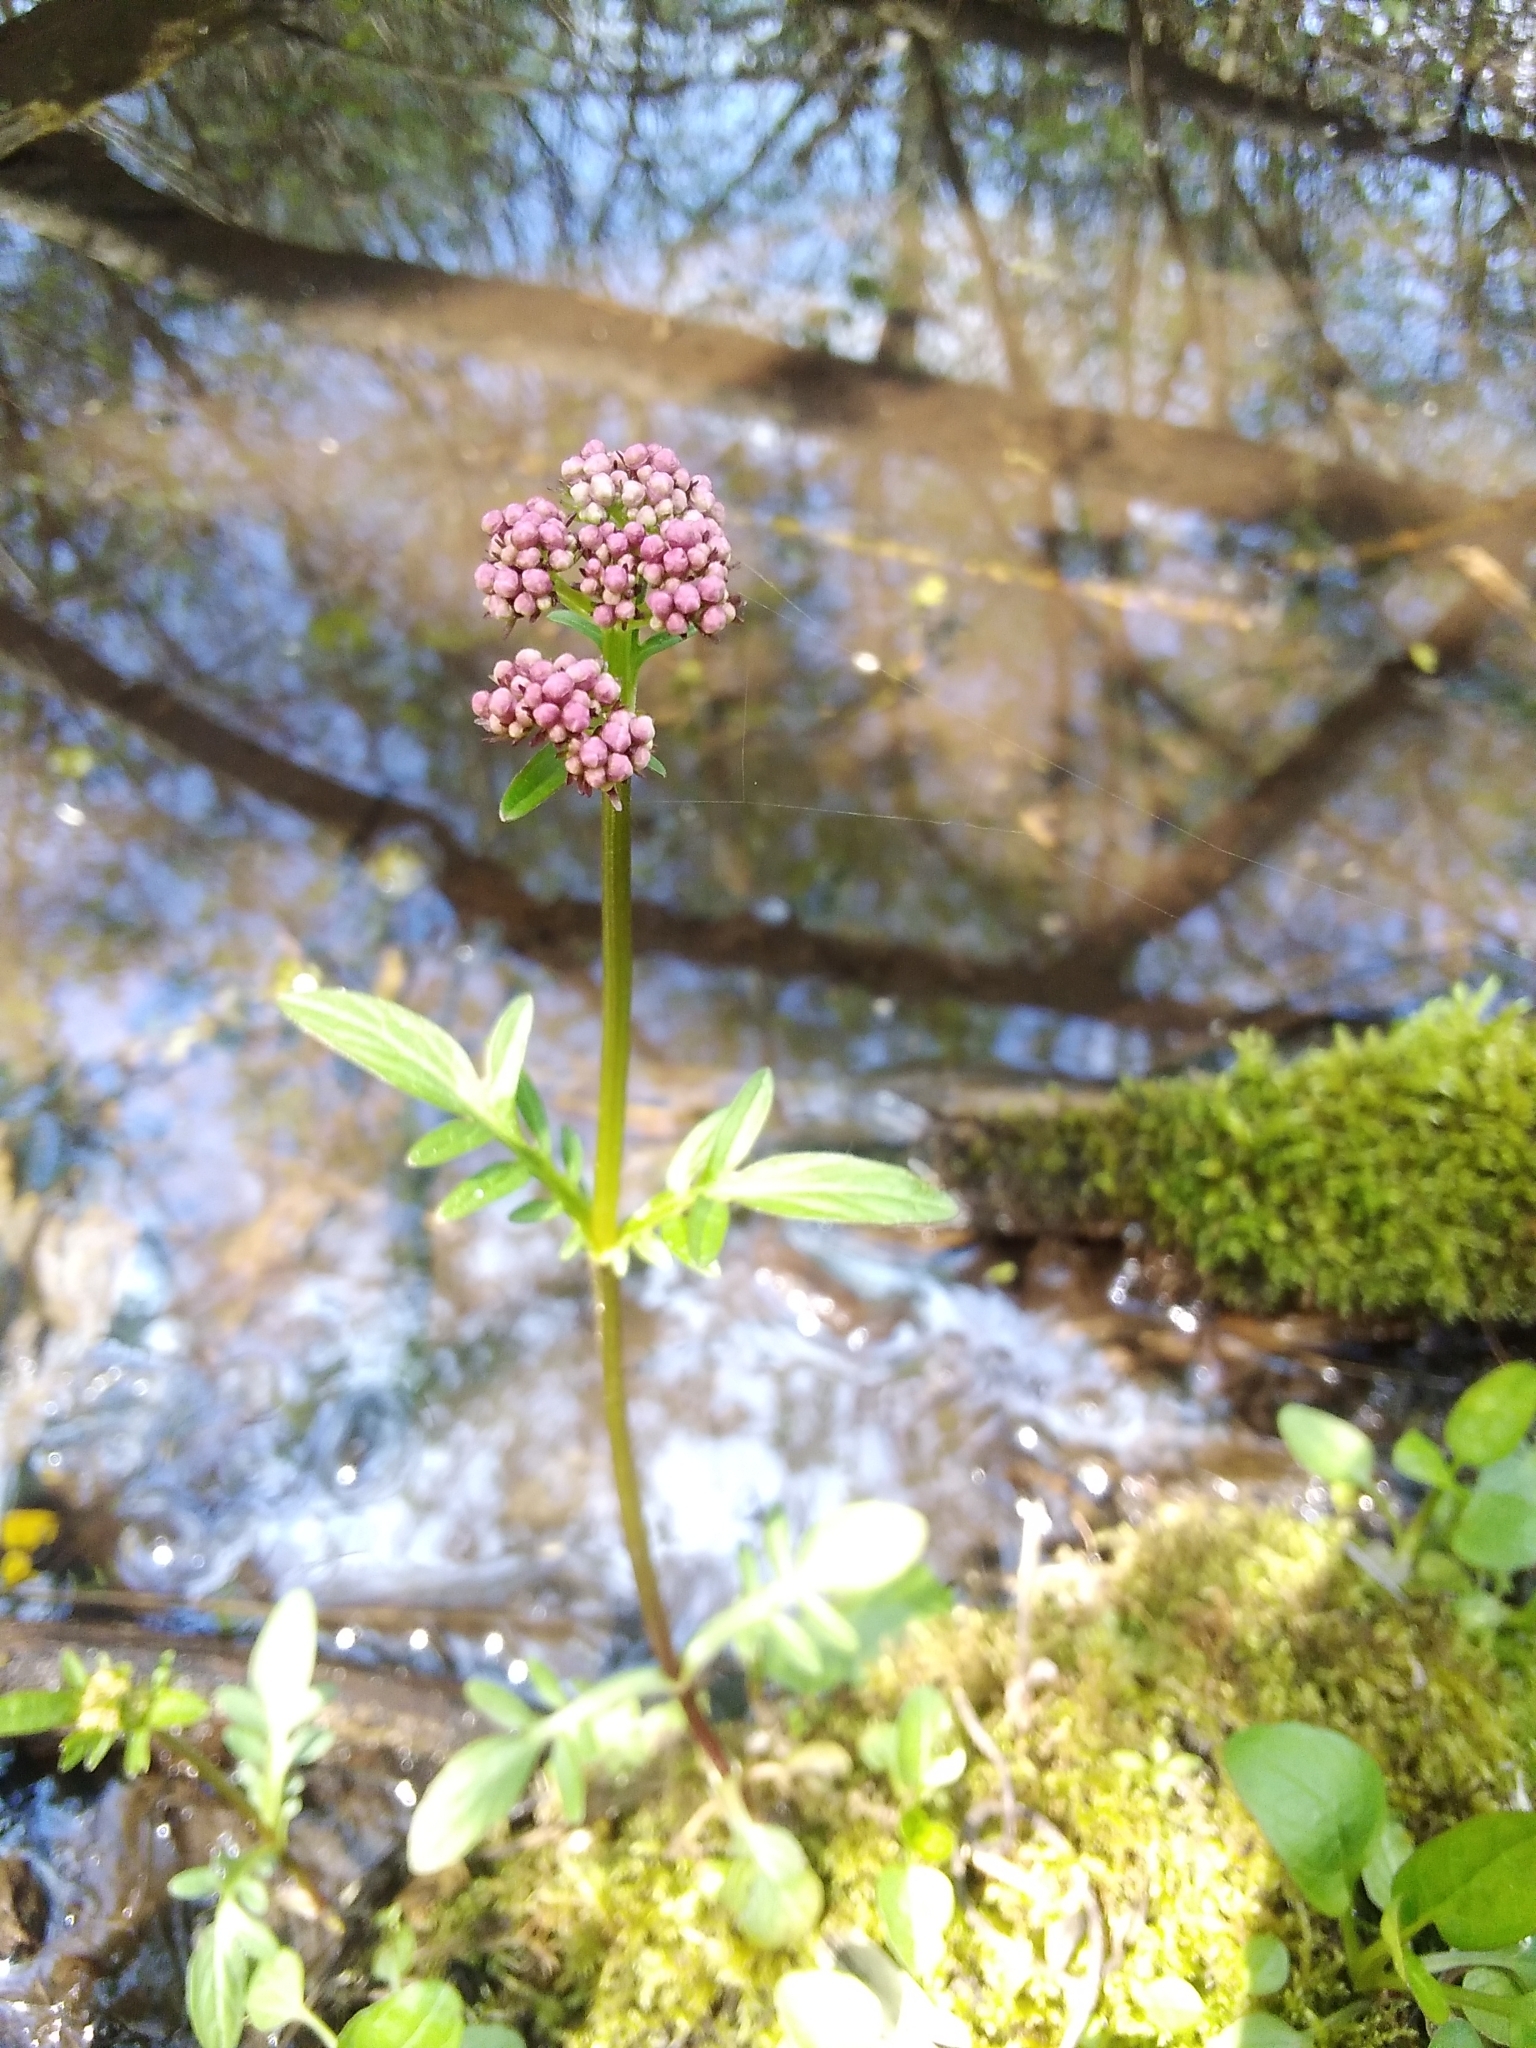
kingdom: Plantae
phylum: Tracheophyta
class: Magnoliopsida
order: Dipsacales
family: Caprifoliaceae
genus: Valeriana
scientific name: Valeriana dioica
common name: Marsh valerian
